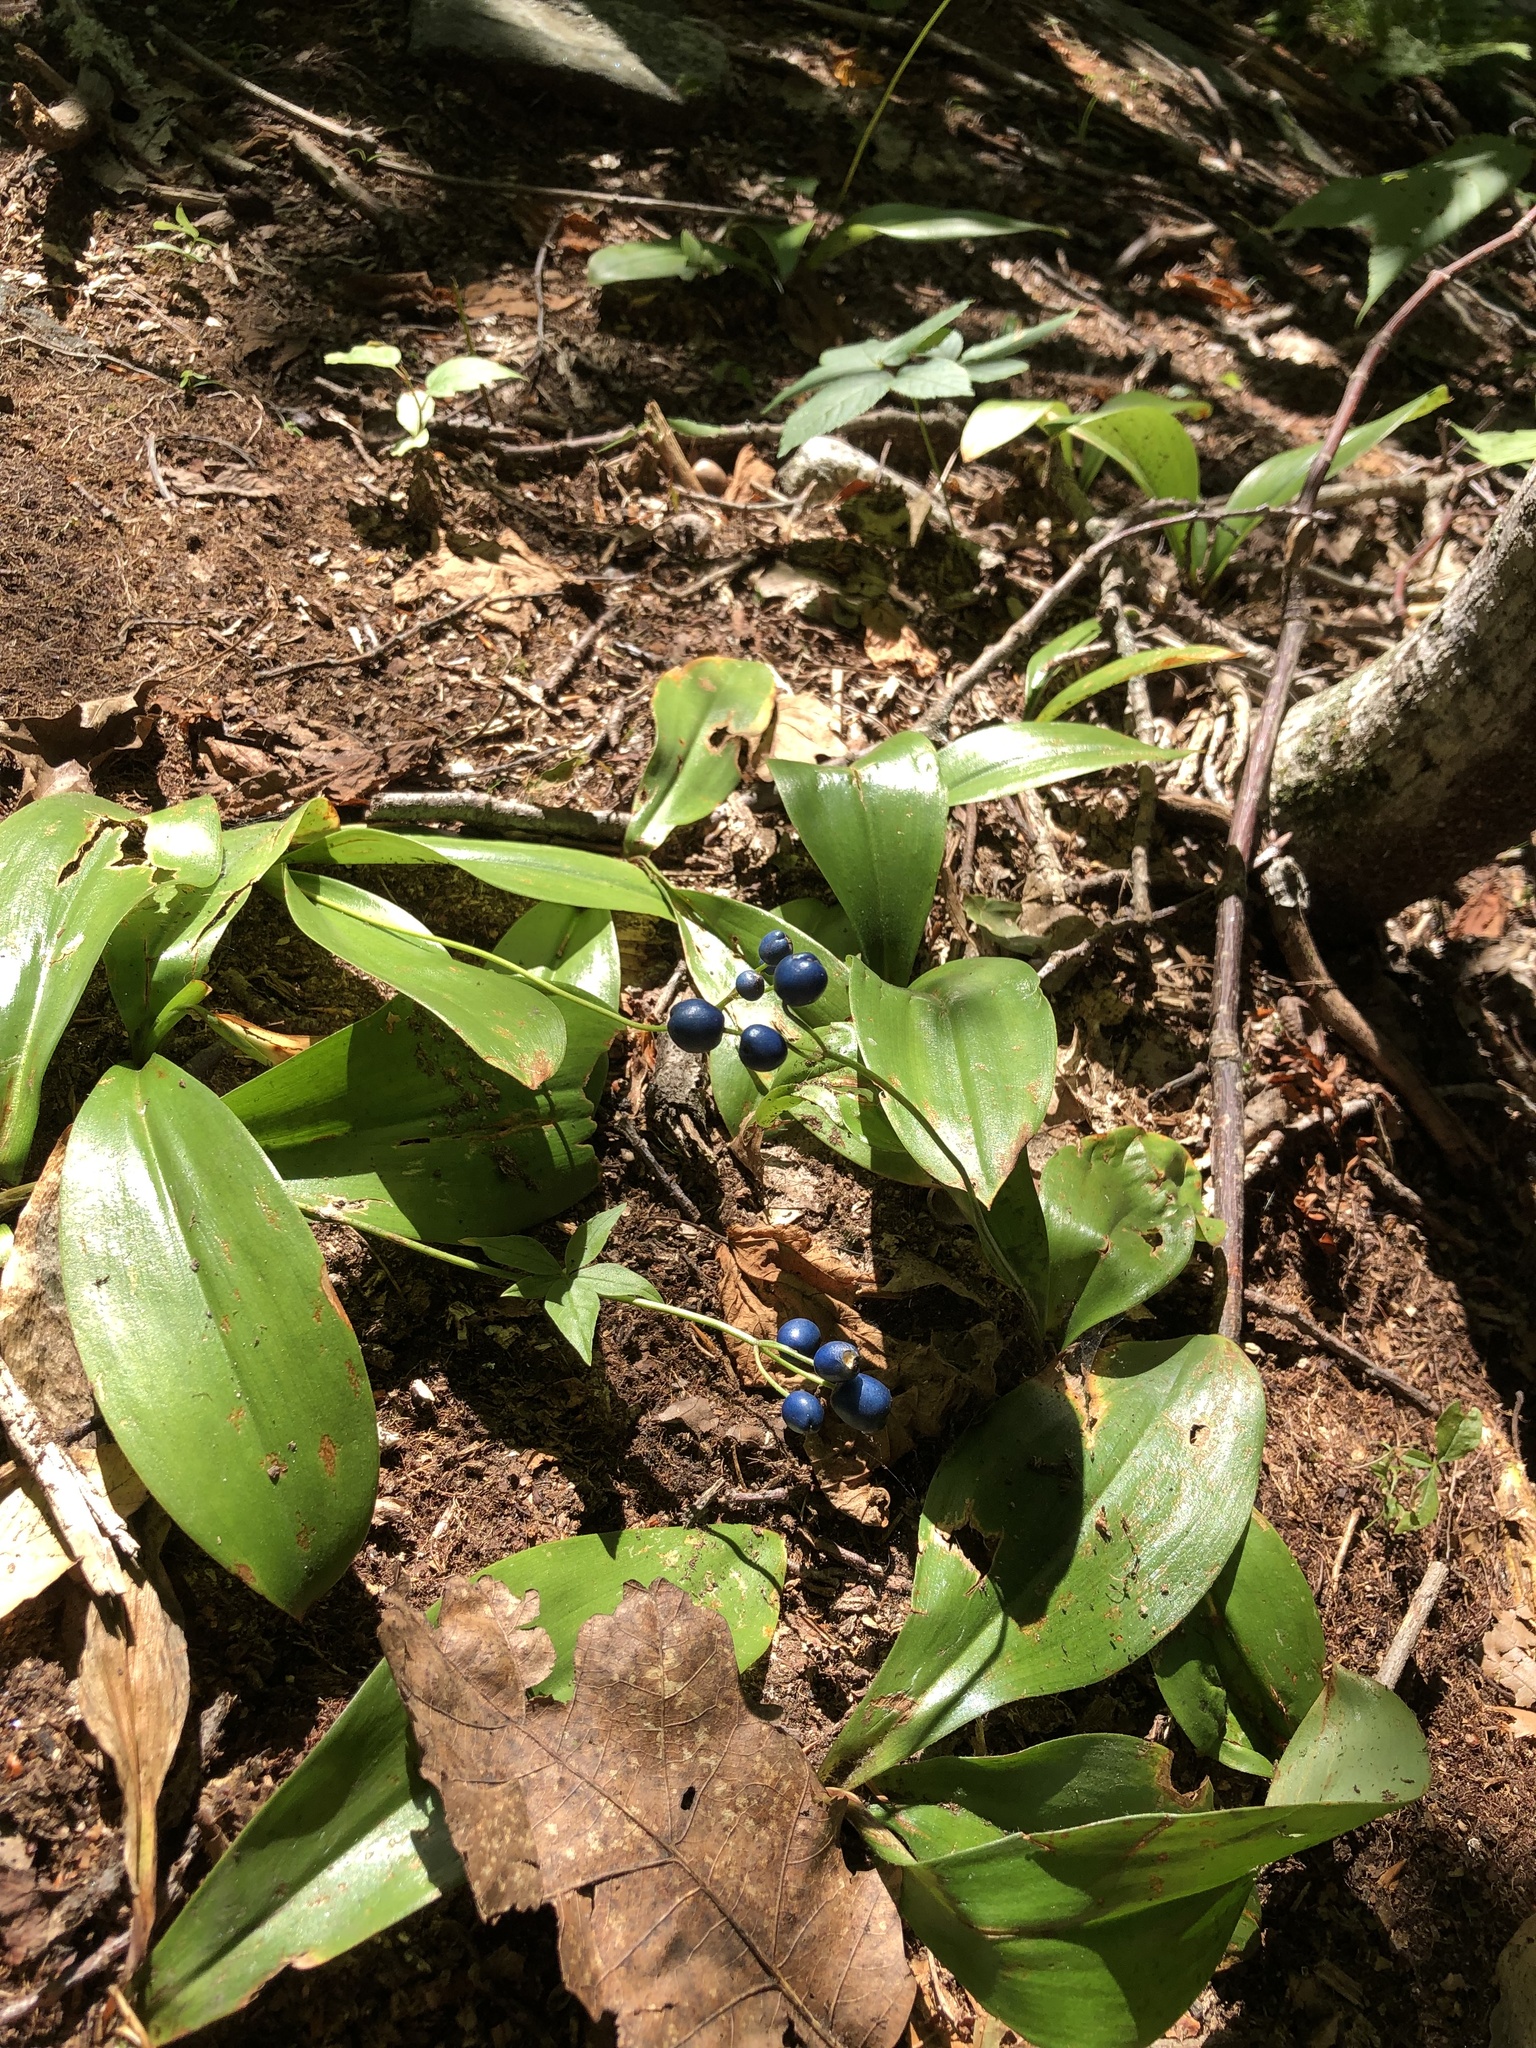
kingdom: Plantae
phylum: Tracheophyta
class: Liliopsida
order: Liliales
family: Liliaceae
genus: Clintonia
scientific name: Clintonia borealis
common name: Yellow clintonia
